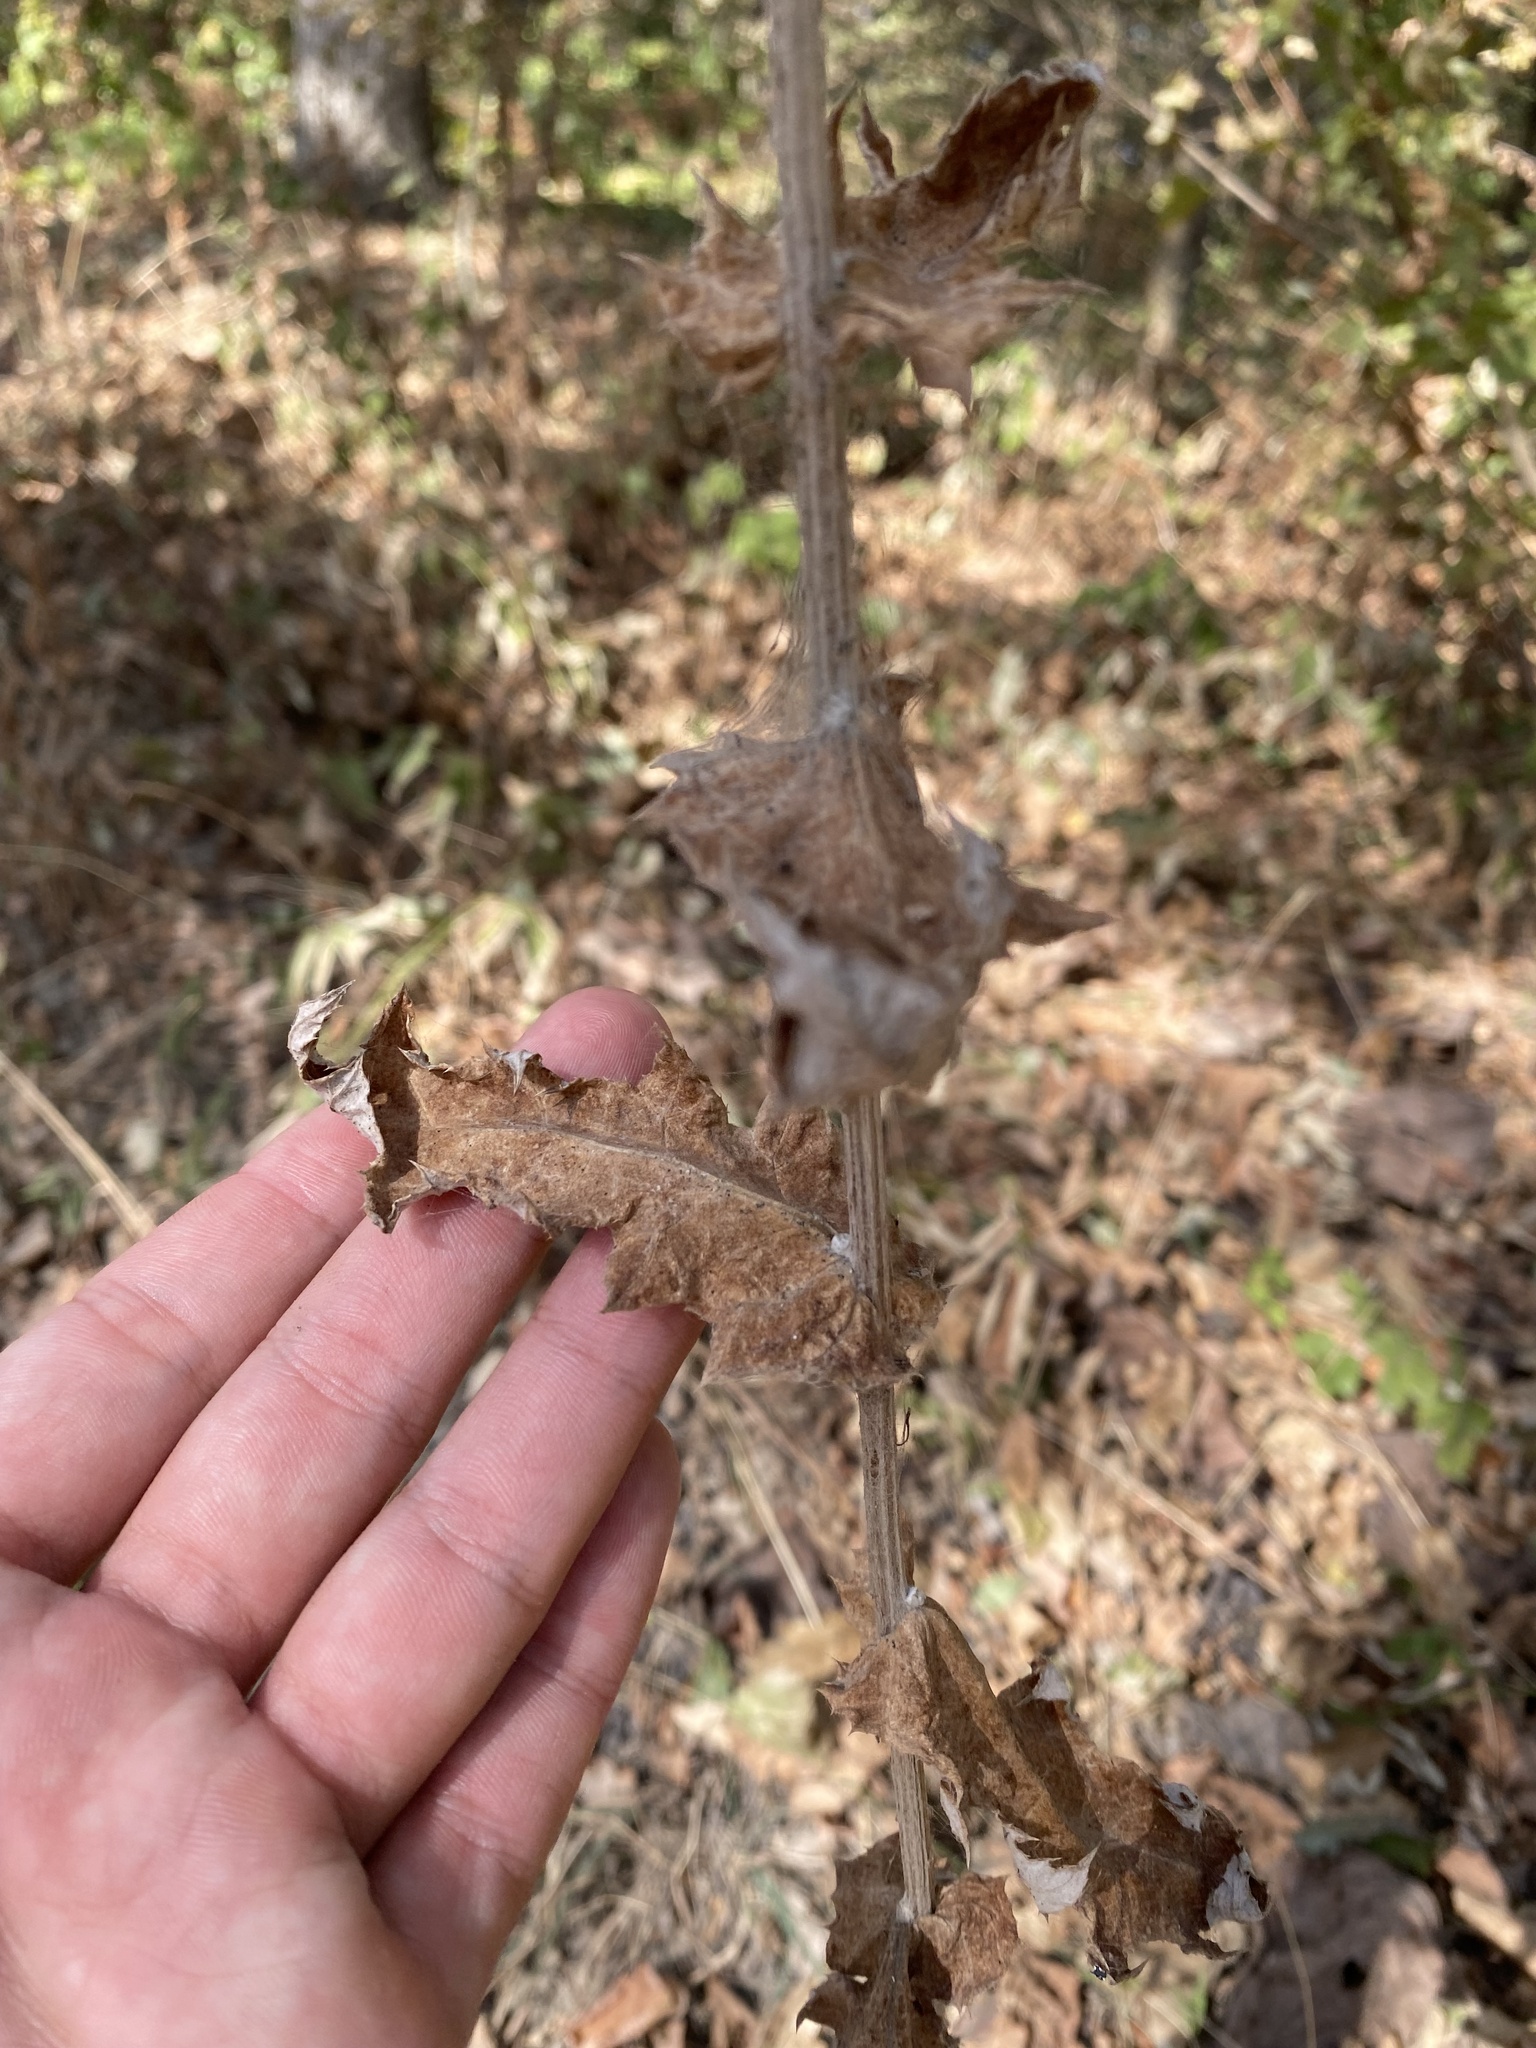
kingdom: Plantae
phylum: Tracheophyta
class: Magnoliopsida
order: Asterales
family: Asteraceae
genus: Echinops
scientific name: Echinops sphaerocephalus
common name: Glandular globe-thistle
